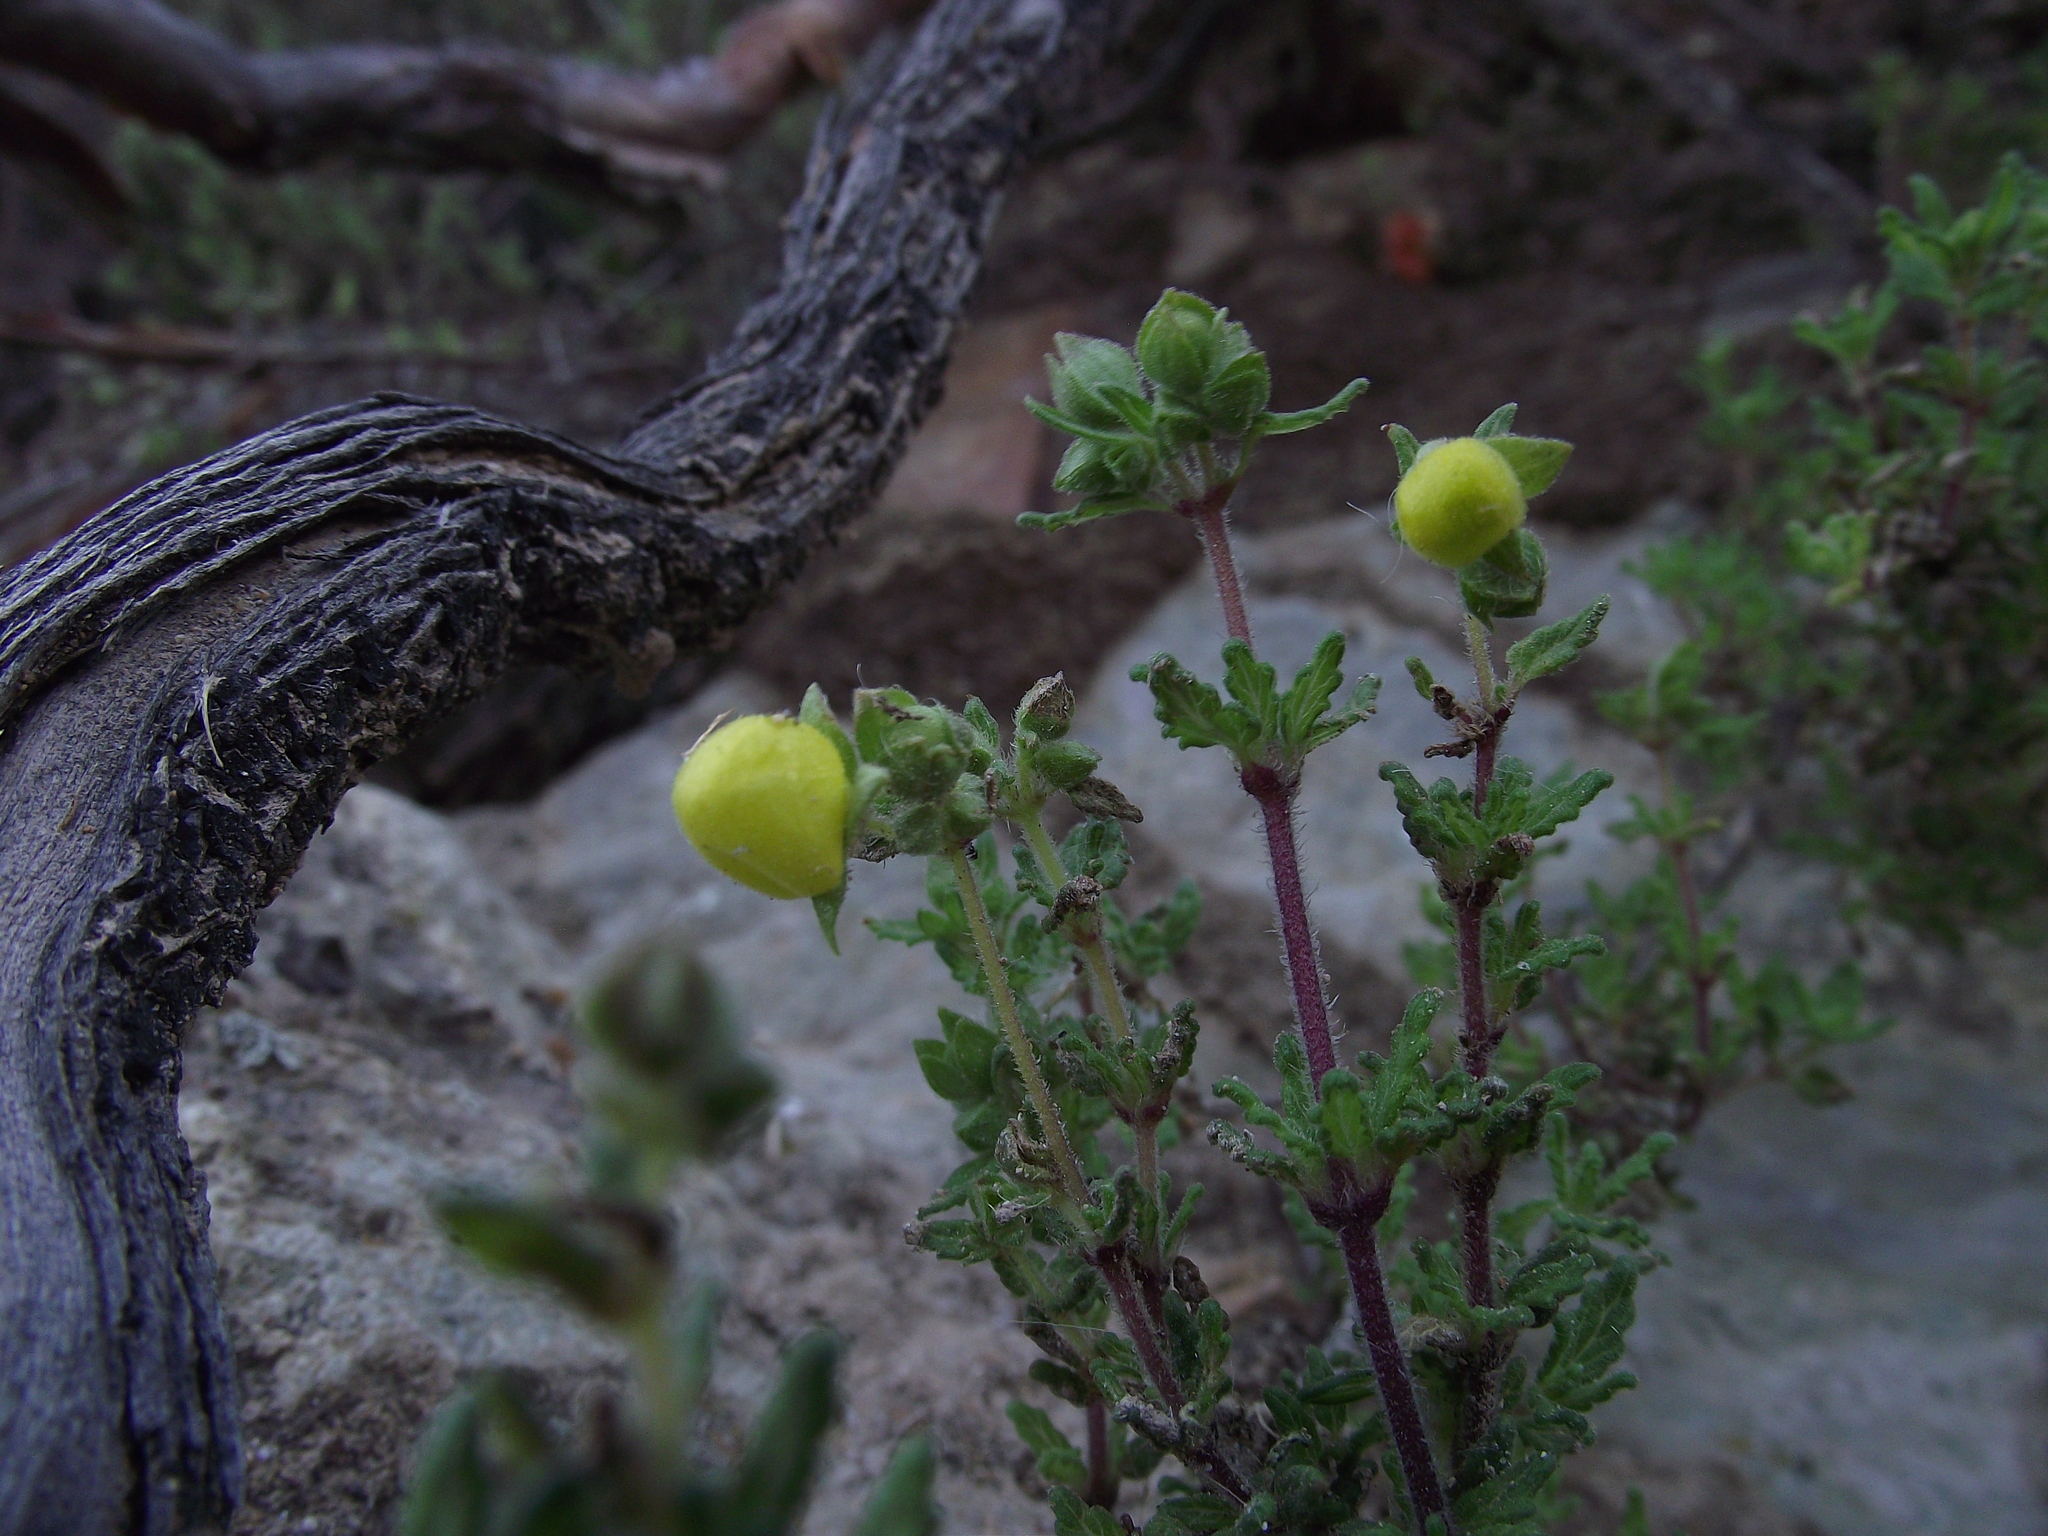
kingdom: Plantae
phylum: Tracheophyta
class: Magnoliopsida
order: Lamiales
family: Calceolariaceae
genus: Calceolaria
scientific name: Calceolaria inamoena
